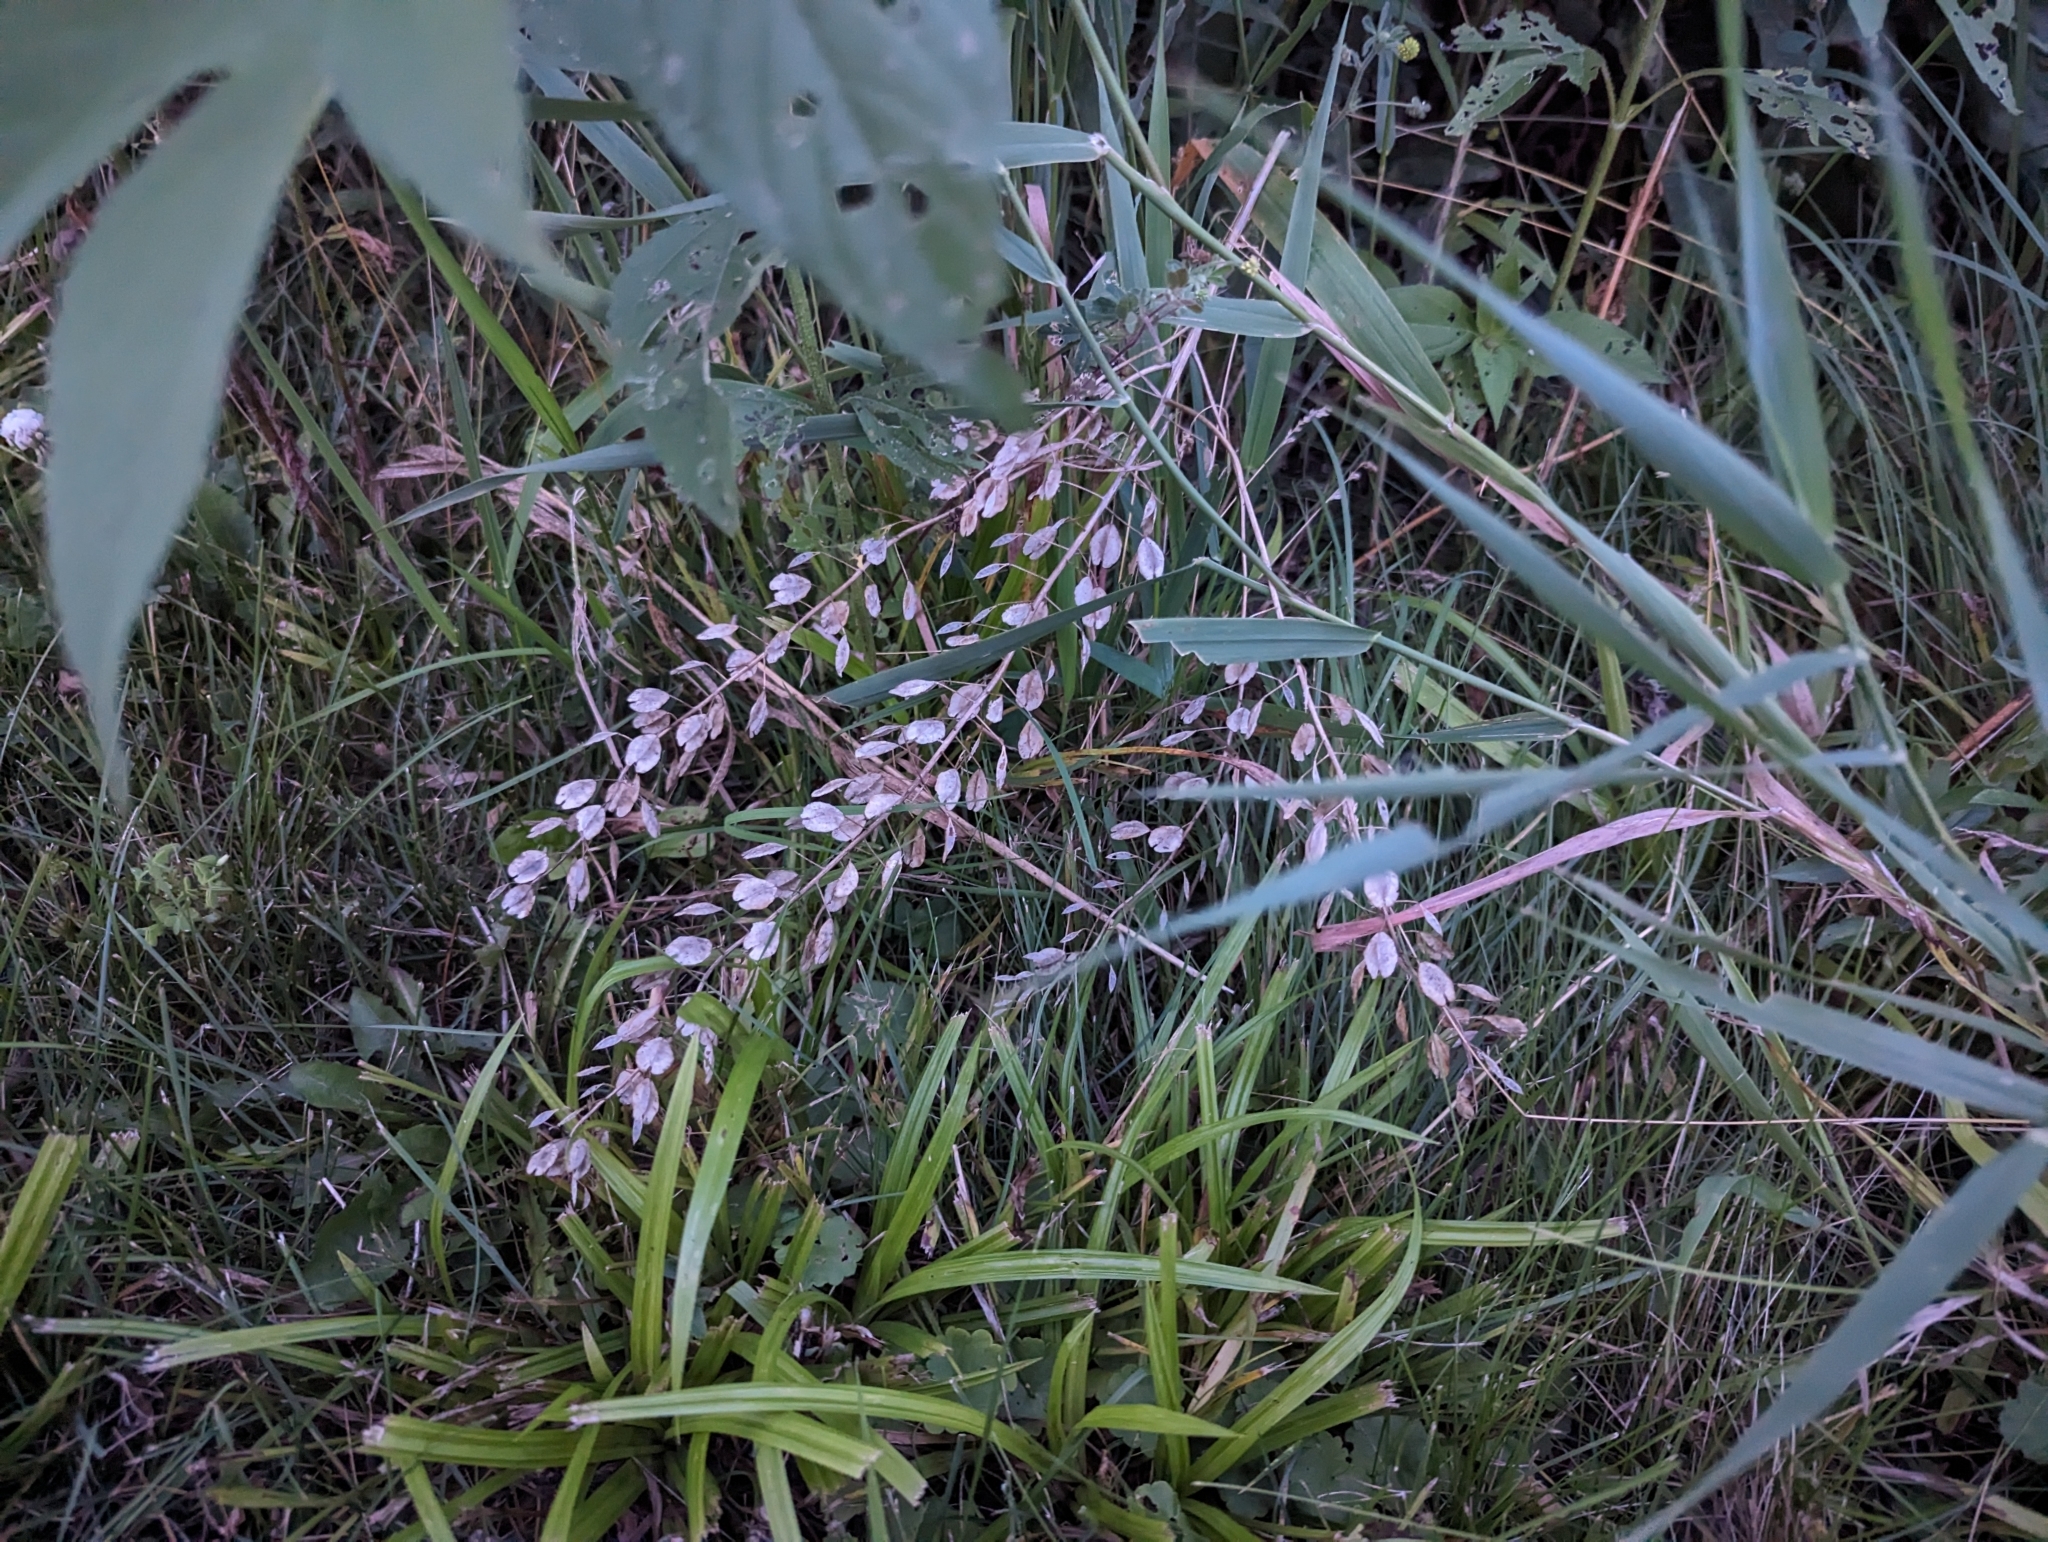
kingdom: Plantae
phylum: Tracheophyta
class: Magnoliopsida
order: Brassicales
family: Brassicaceae
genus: Thlaspi
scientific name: Thlaspi arvense
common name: Field pennycress
